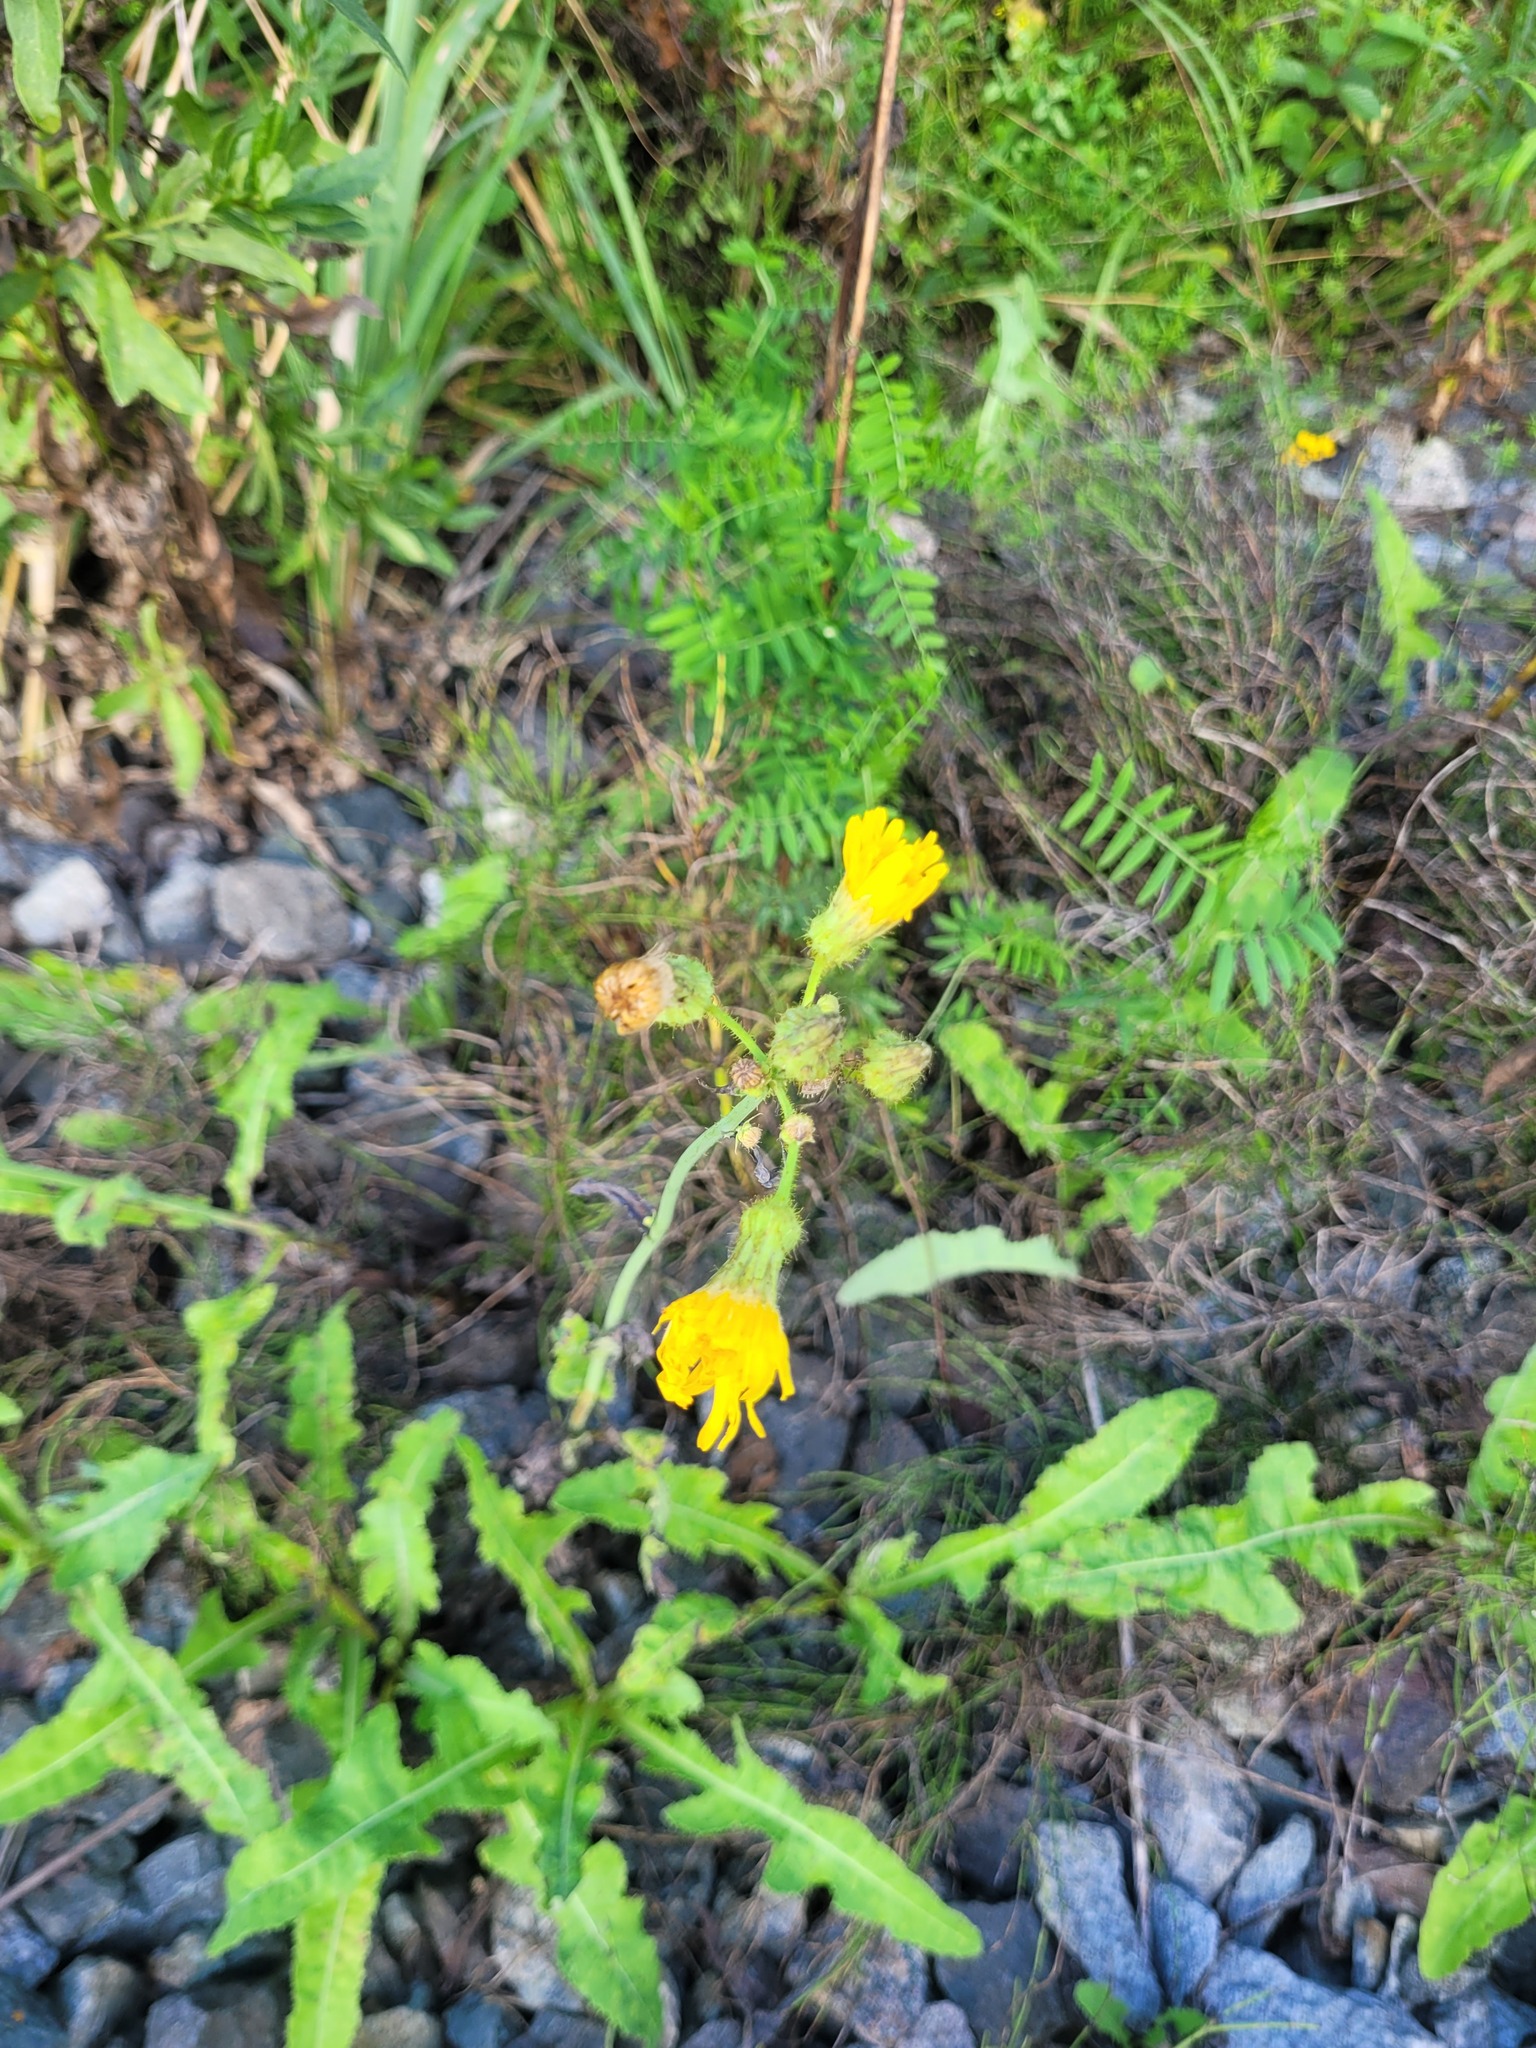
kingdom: Plantae
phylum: Tracheophyta
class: Magnoliopsida
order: Asterales
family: Asteraceae
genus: Sonchus
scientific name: Sonchus arvensis
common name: Perennial sow-thistle
